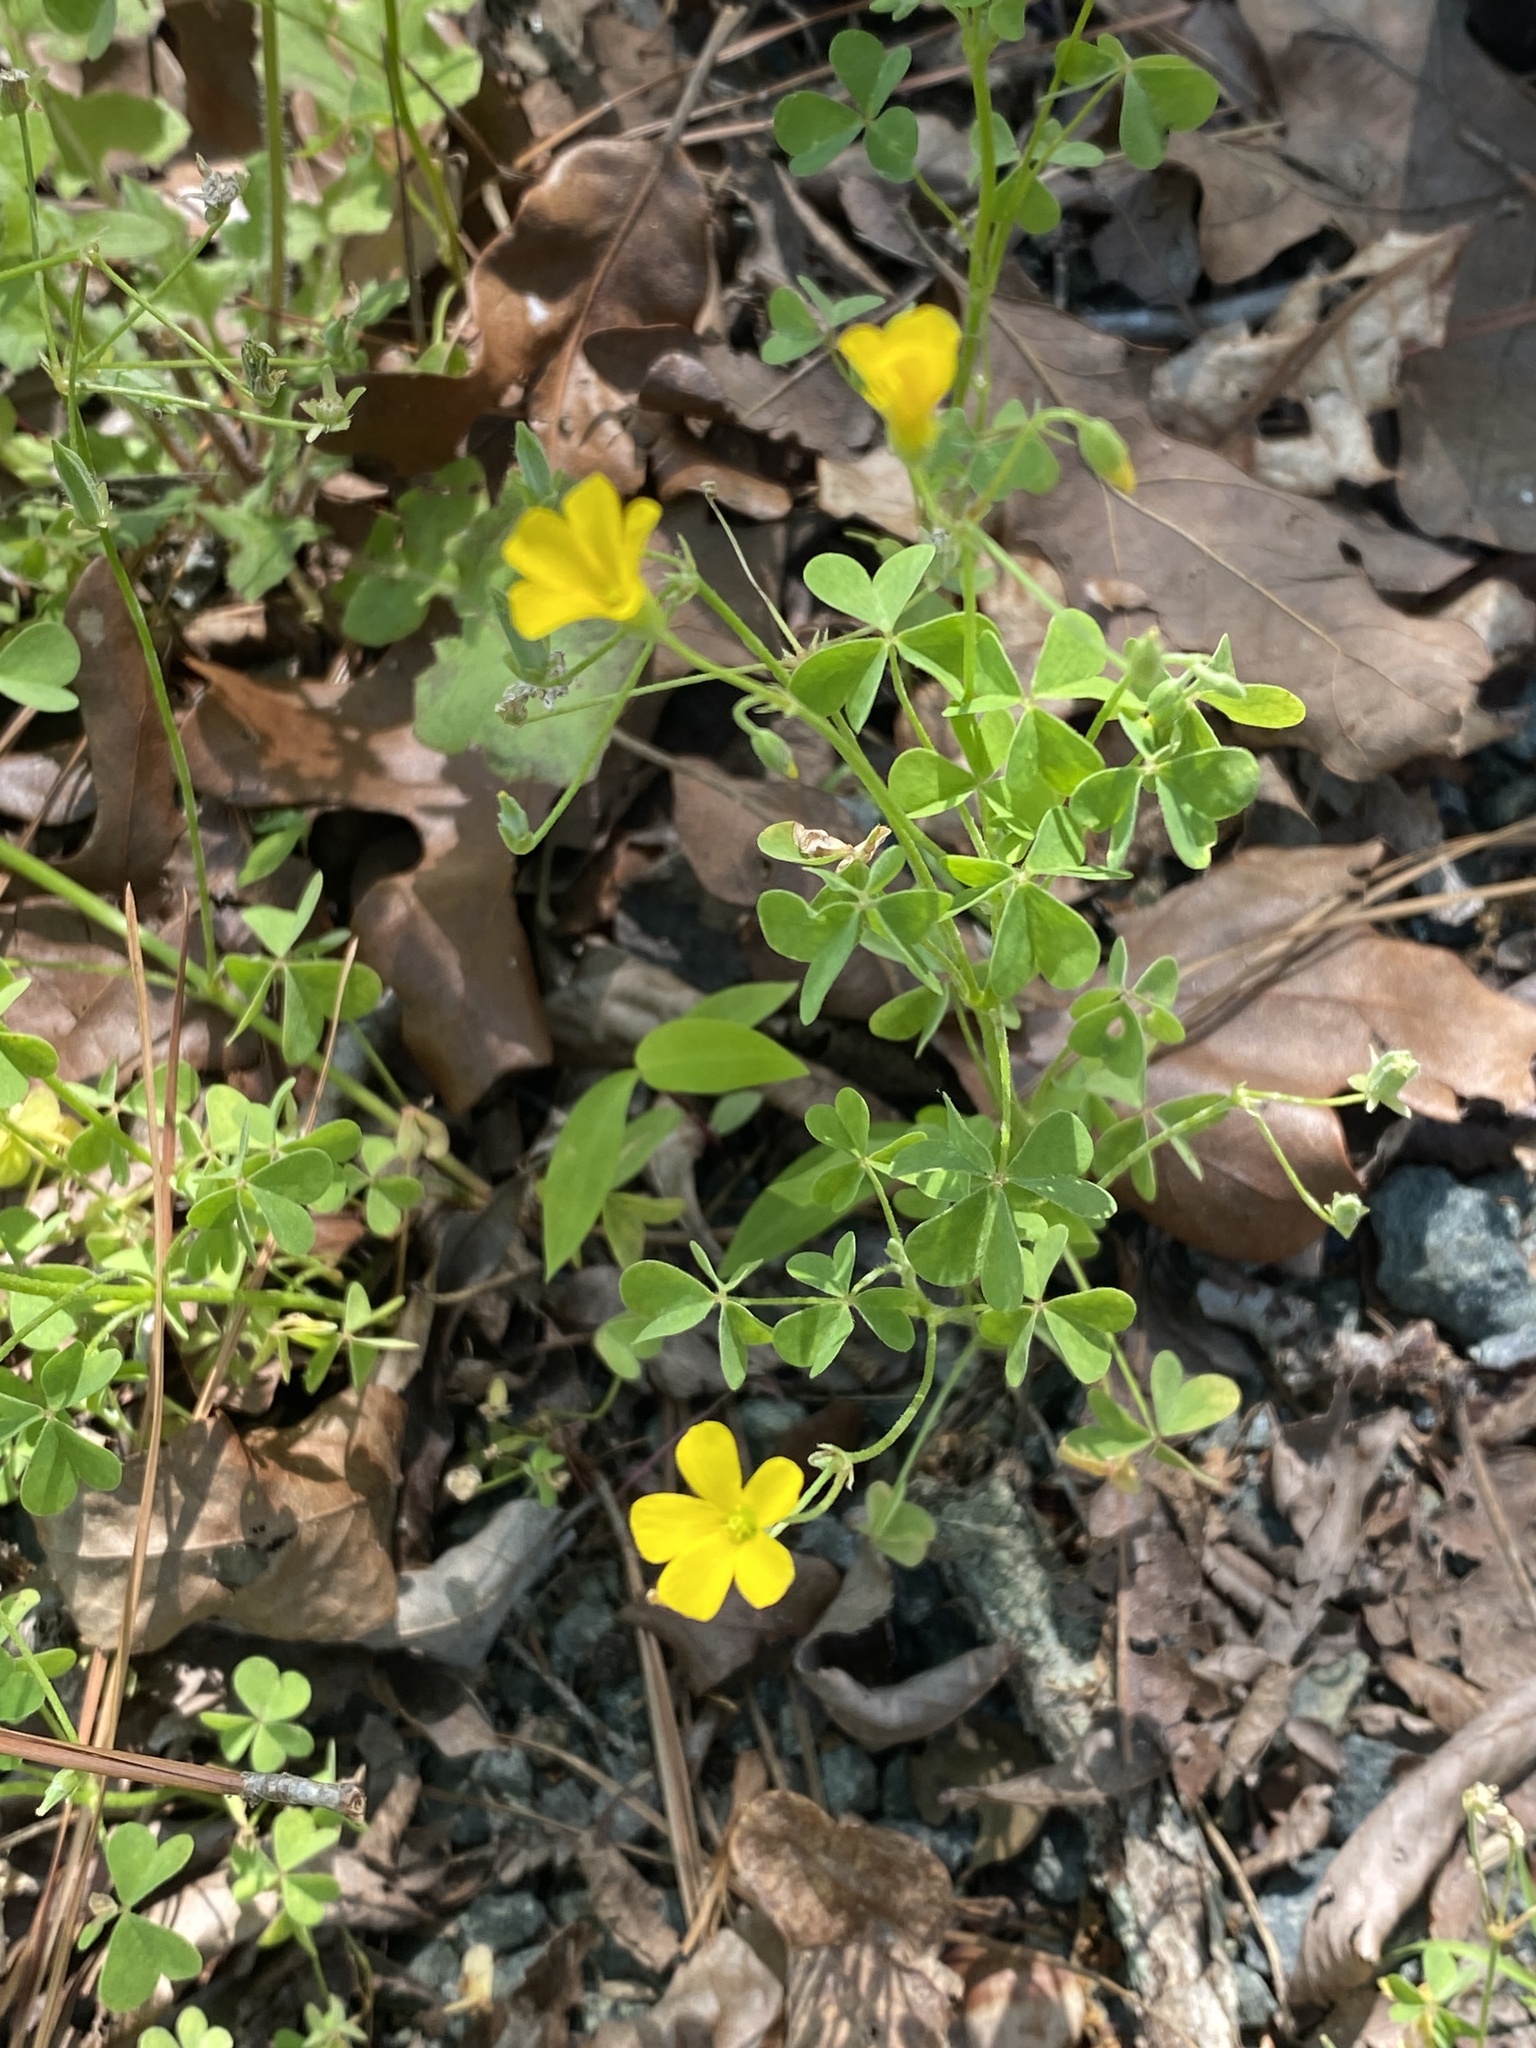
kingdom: Plantae
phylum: Tracheophyta
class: Magnoliopsida
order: Oxalidales
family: Oxalidaceae
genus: Oxalis
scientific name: Oxalis dillenii
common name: Sussex yellow-sorrel
